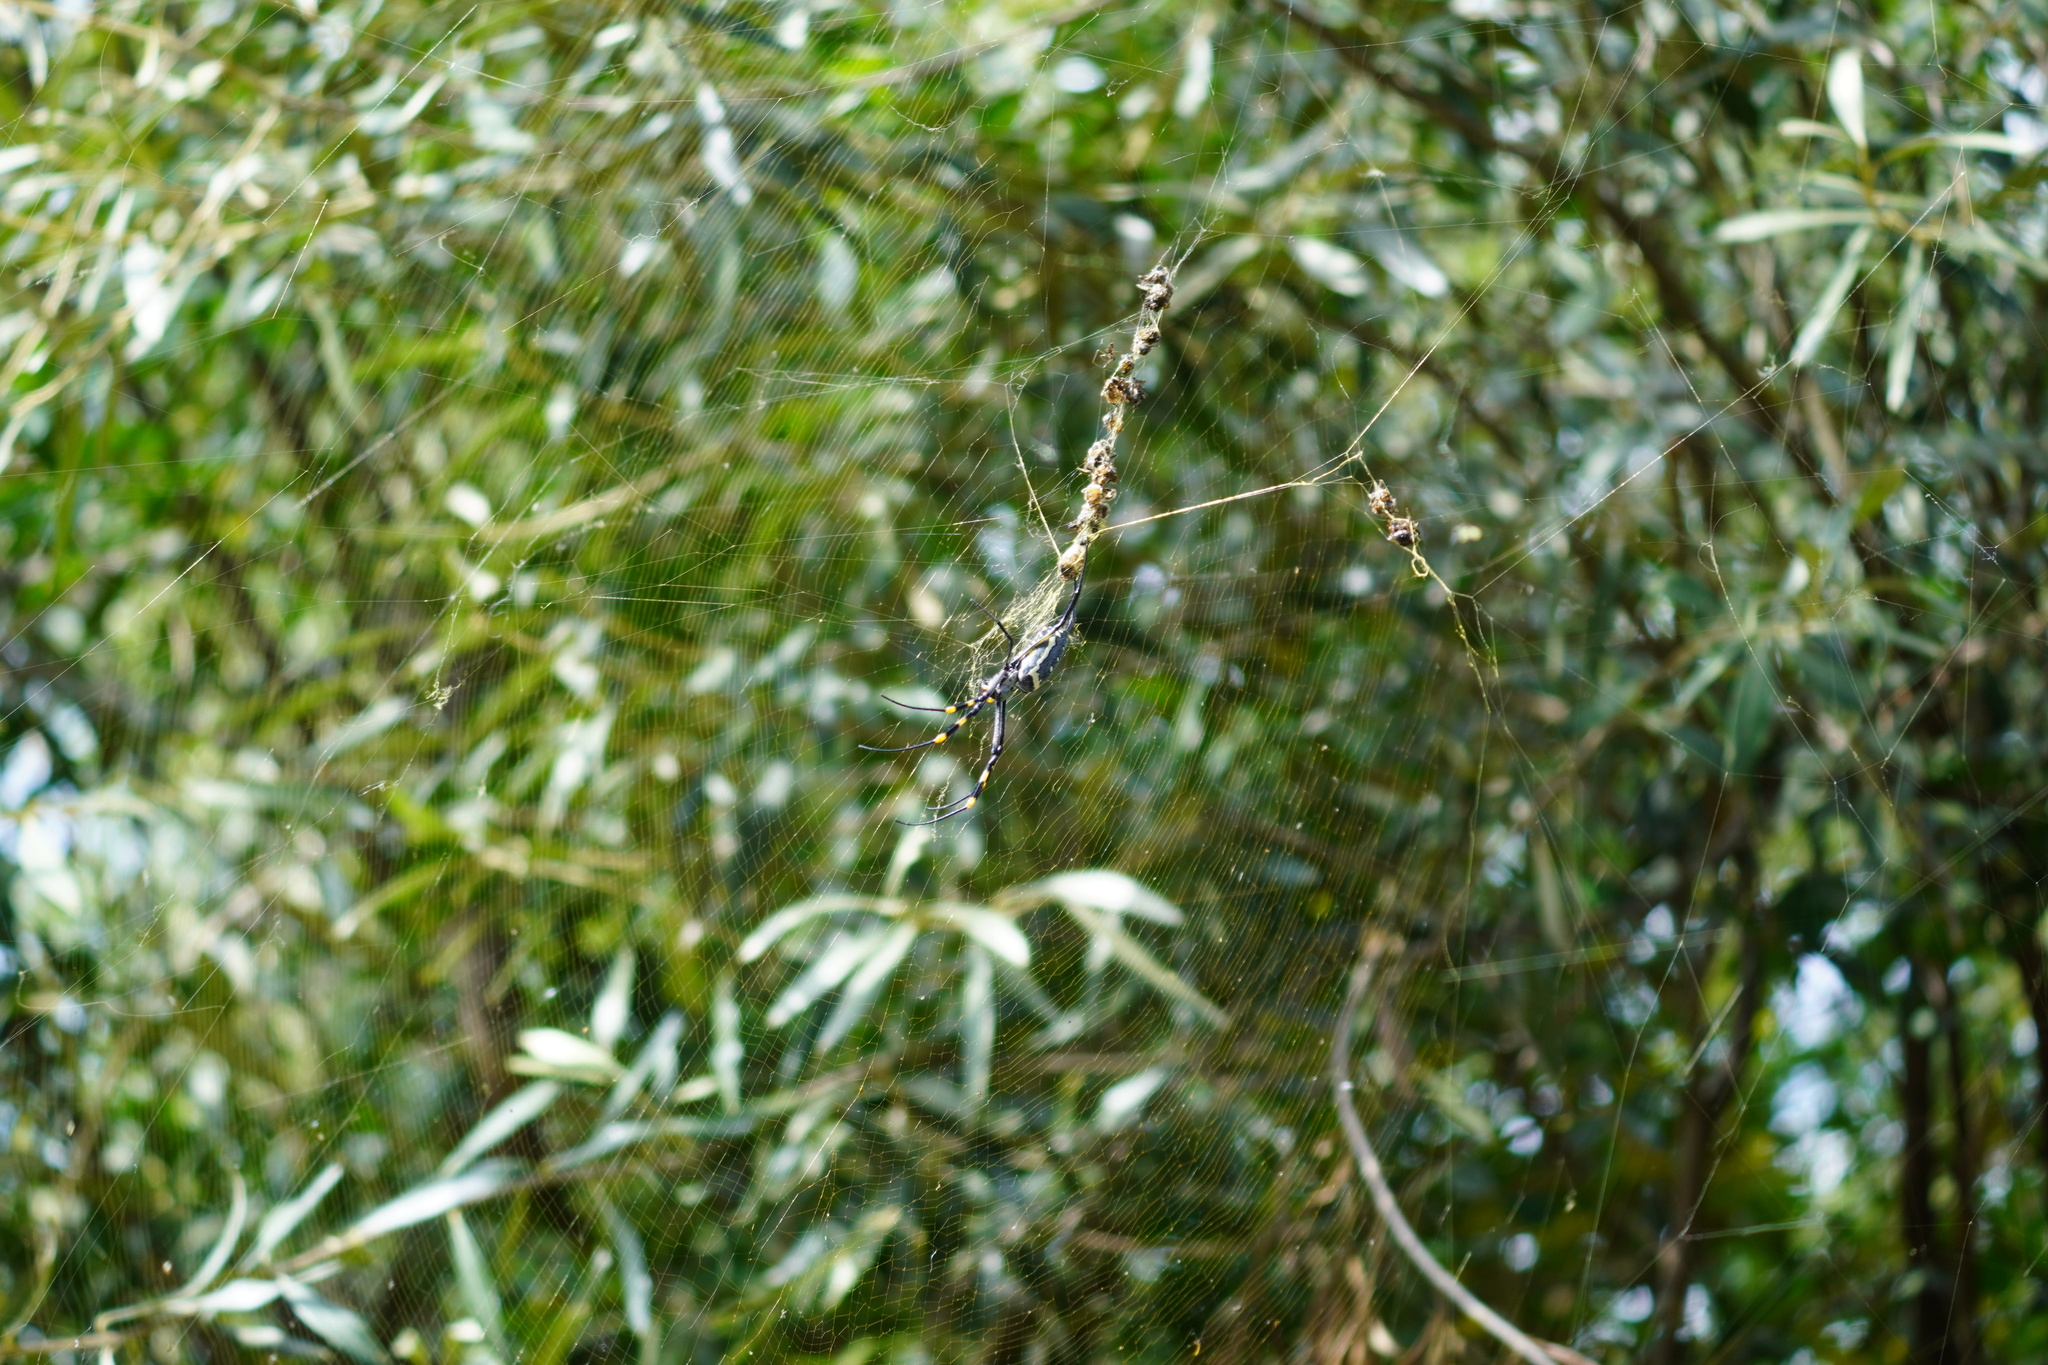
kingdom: Animalia
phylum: Arthropoda
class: Arachnida
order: Araneae
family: Araneidae
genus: Trichonephila
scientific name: Trichonephila senegalensis
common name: Banded golden orb weaver
